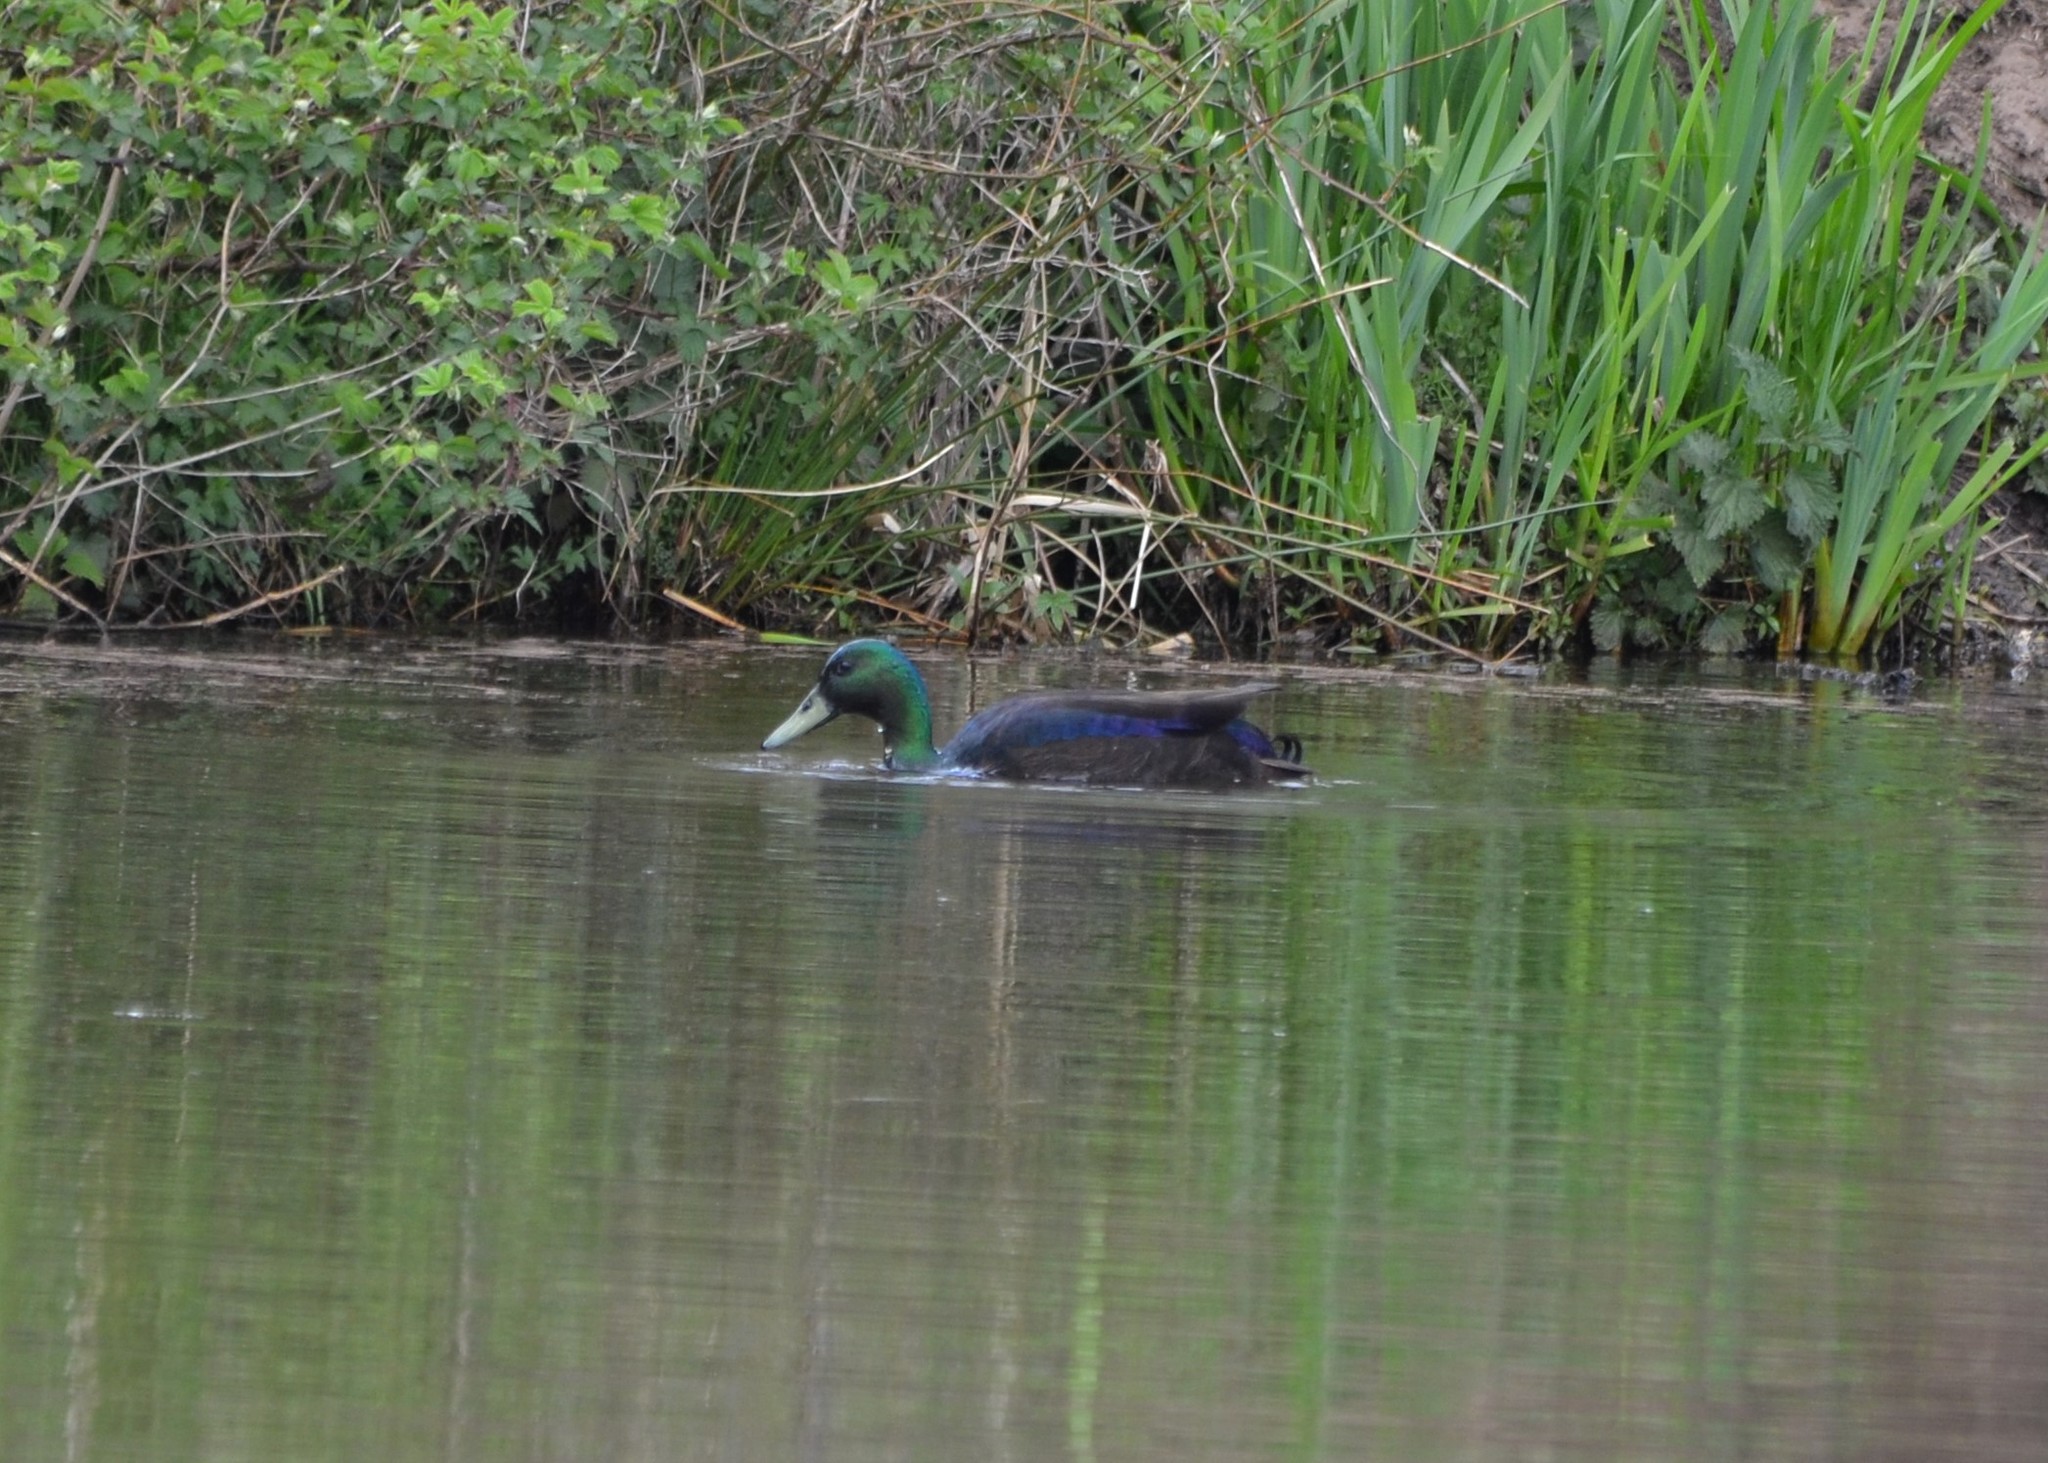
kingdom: Animalia
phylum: Chordata
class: Aves
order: Anseriformes
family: Anatidae
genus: Anas
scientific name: Anas platyrhynchos
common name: Mallard
